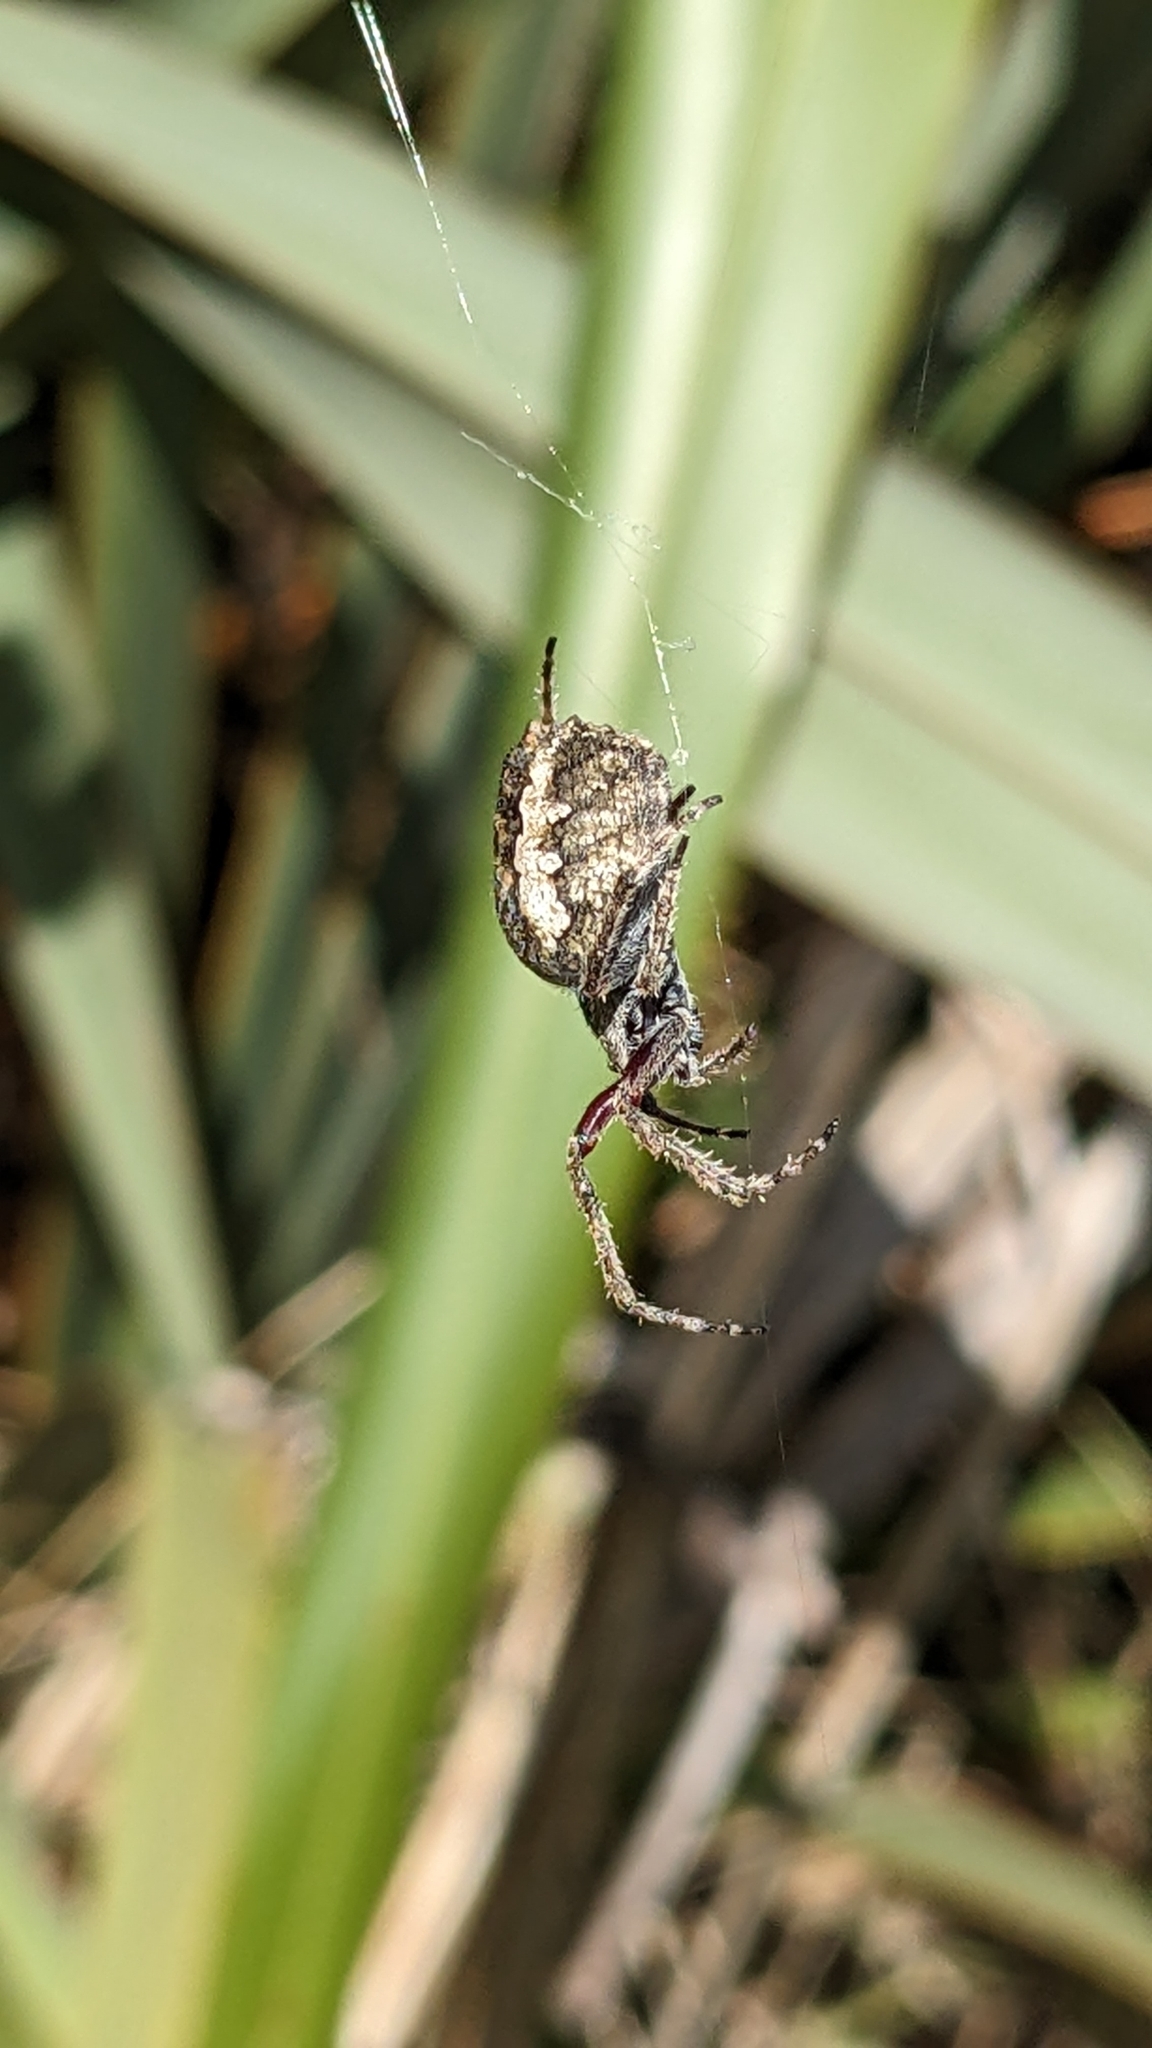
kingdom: Animalia
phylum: Arthropoda
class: Arachnida
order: Araneae
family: Araneidae
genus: Eriophora
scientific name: Eriophora pustulosa
